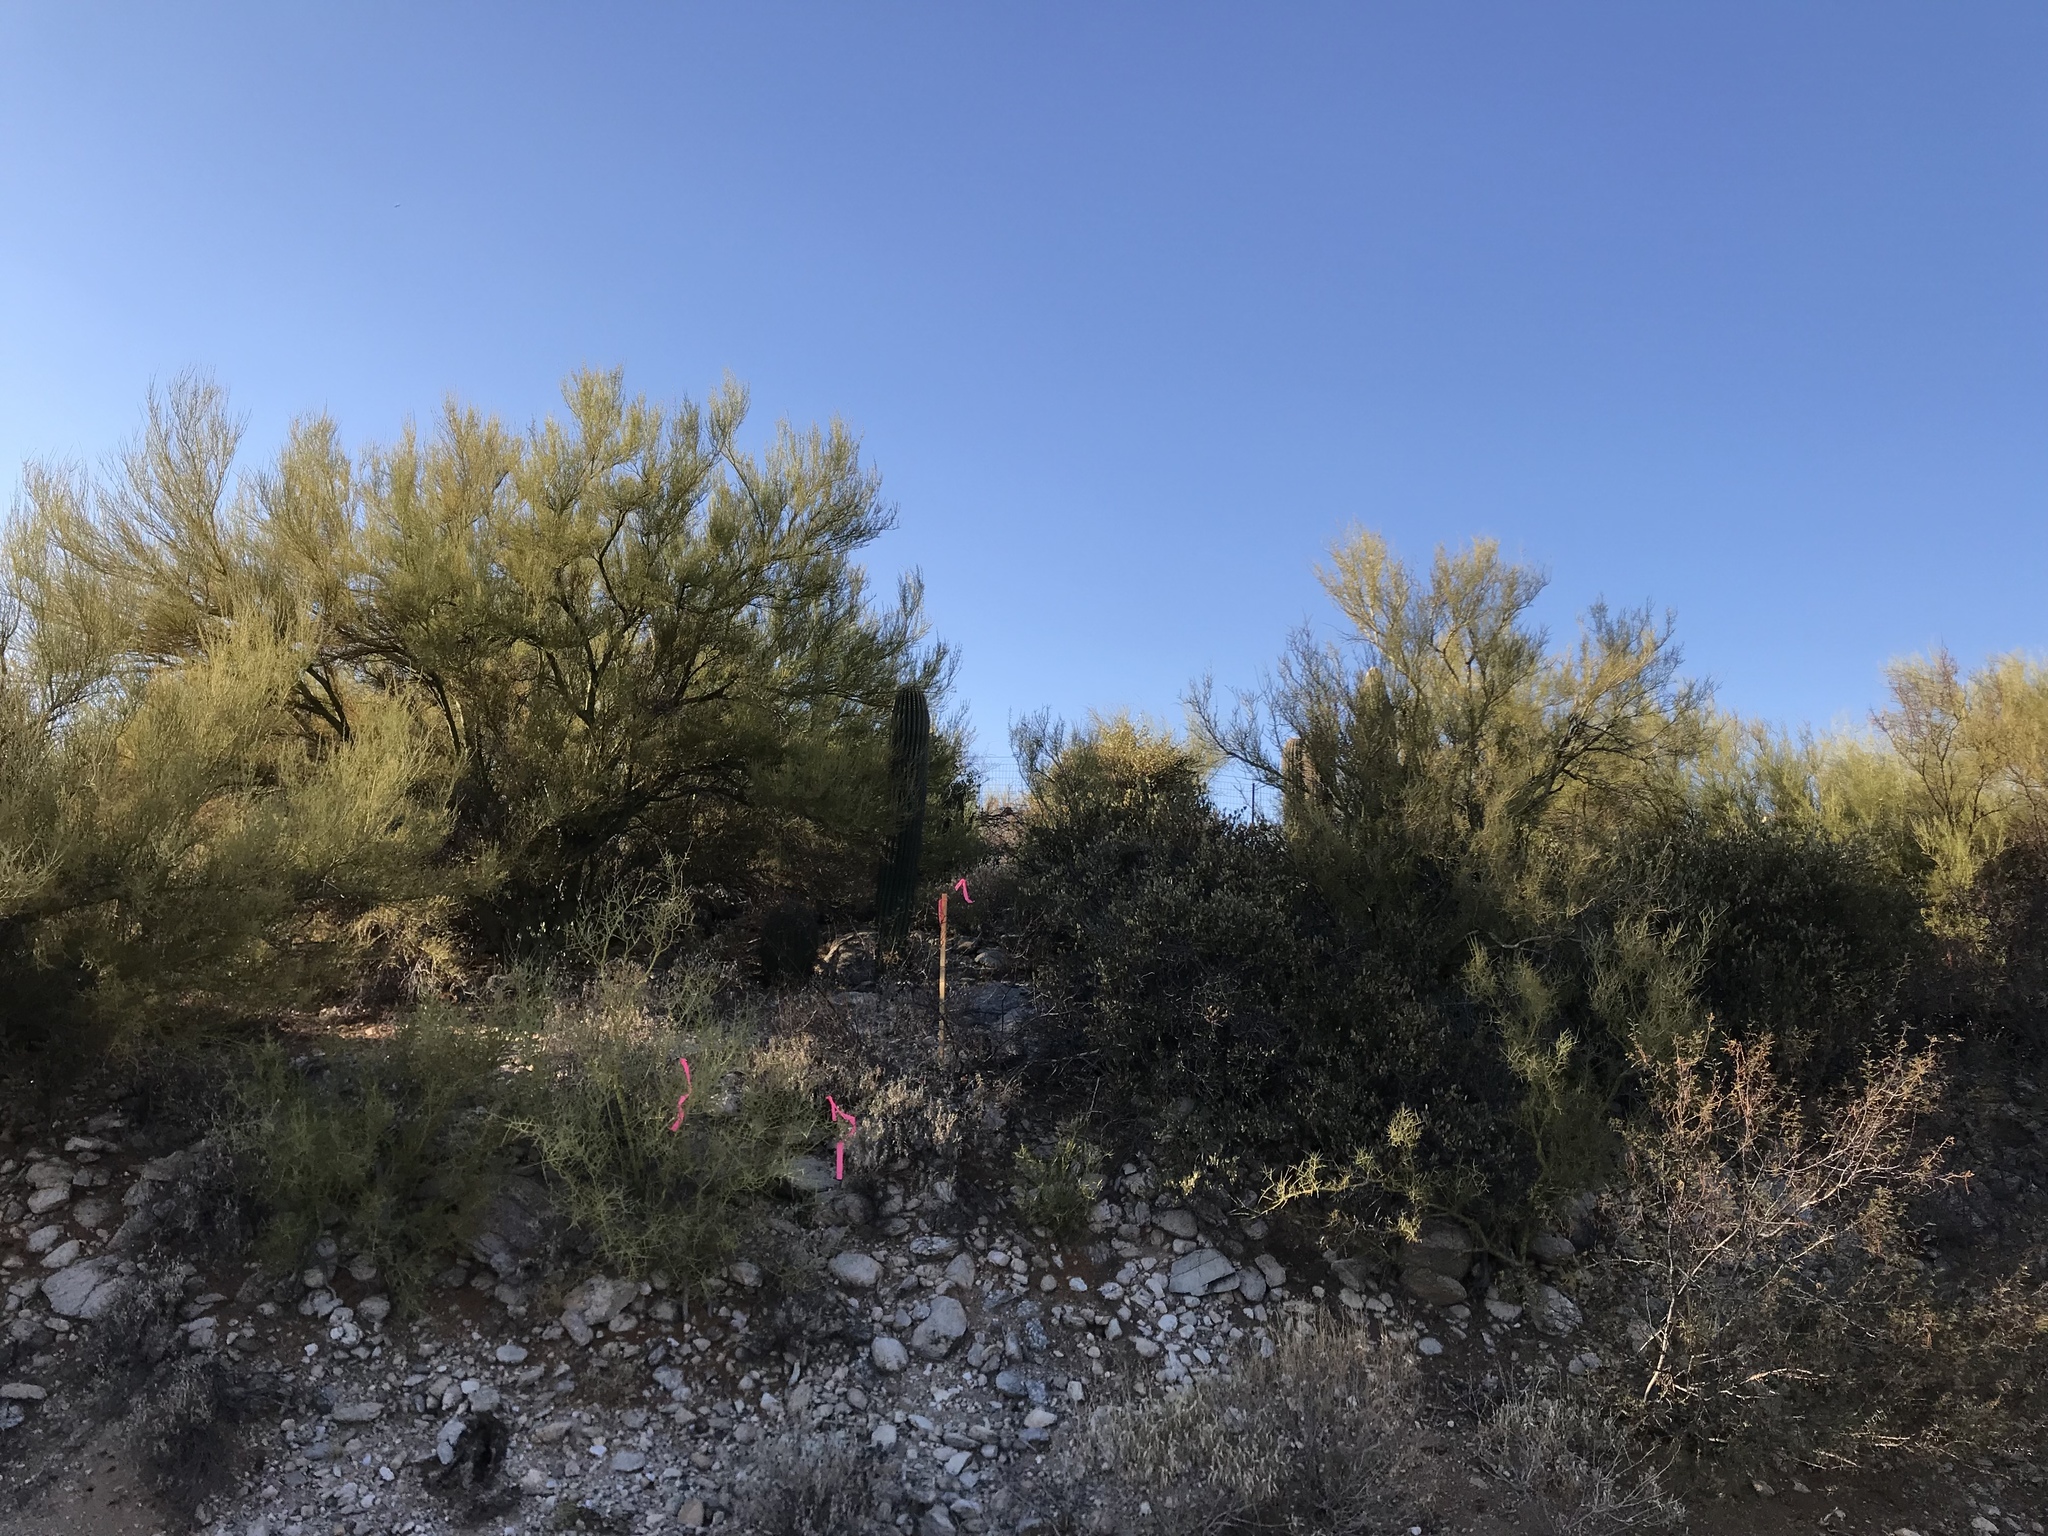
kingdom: Plantae
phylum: Tracheophyta
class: Magnoliopsida
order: Fabales
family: Fabaceae
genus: Parkinsonia
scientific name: Parkinsonia microphylla
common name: Yellow paloverde
